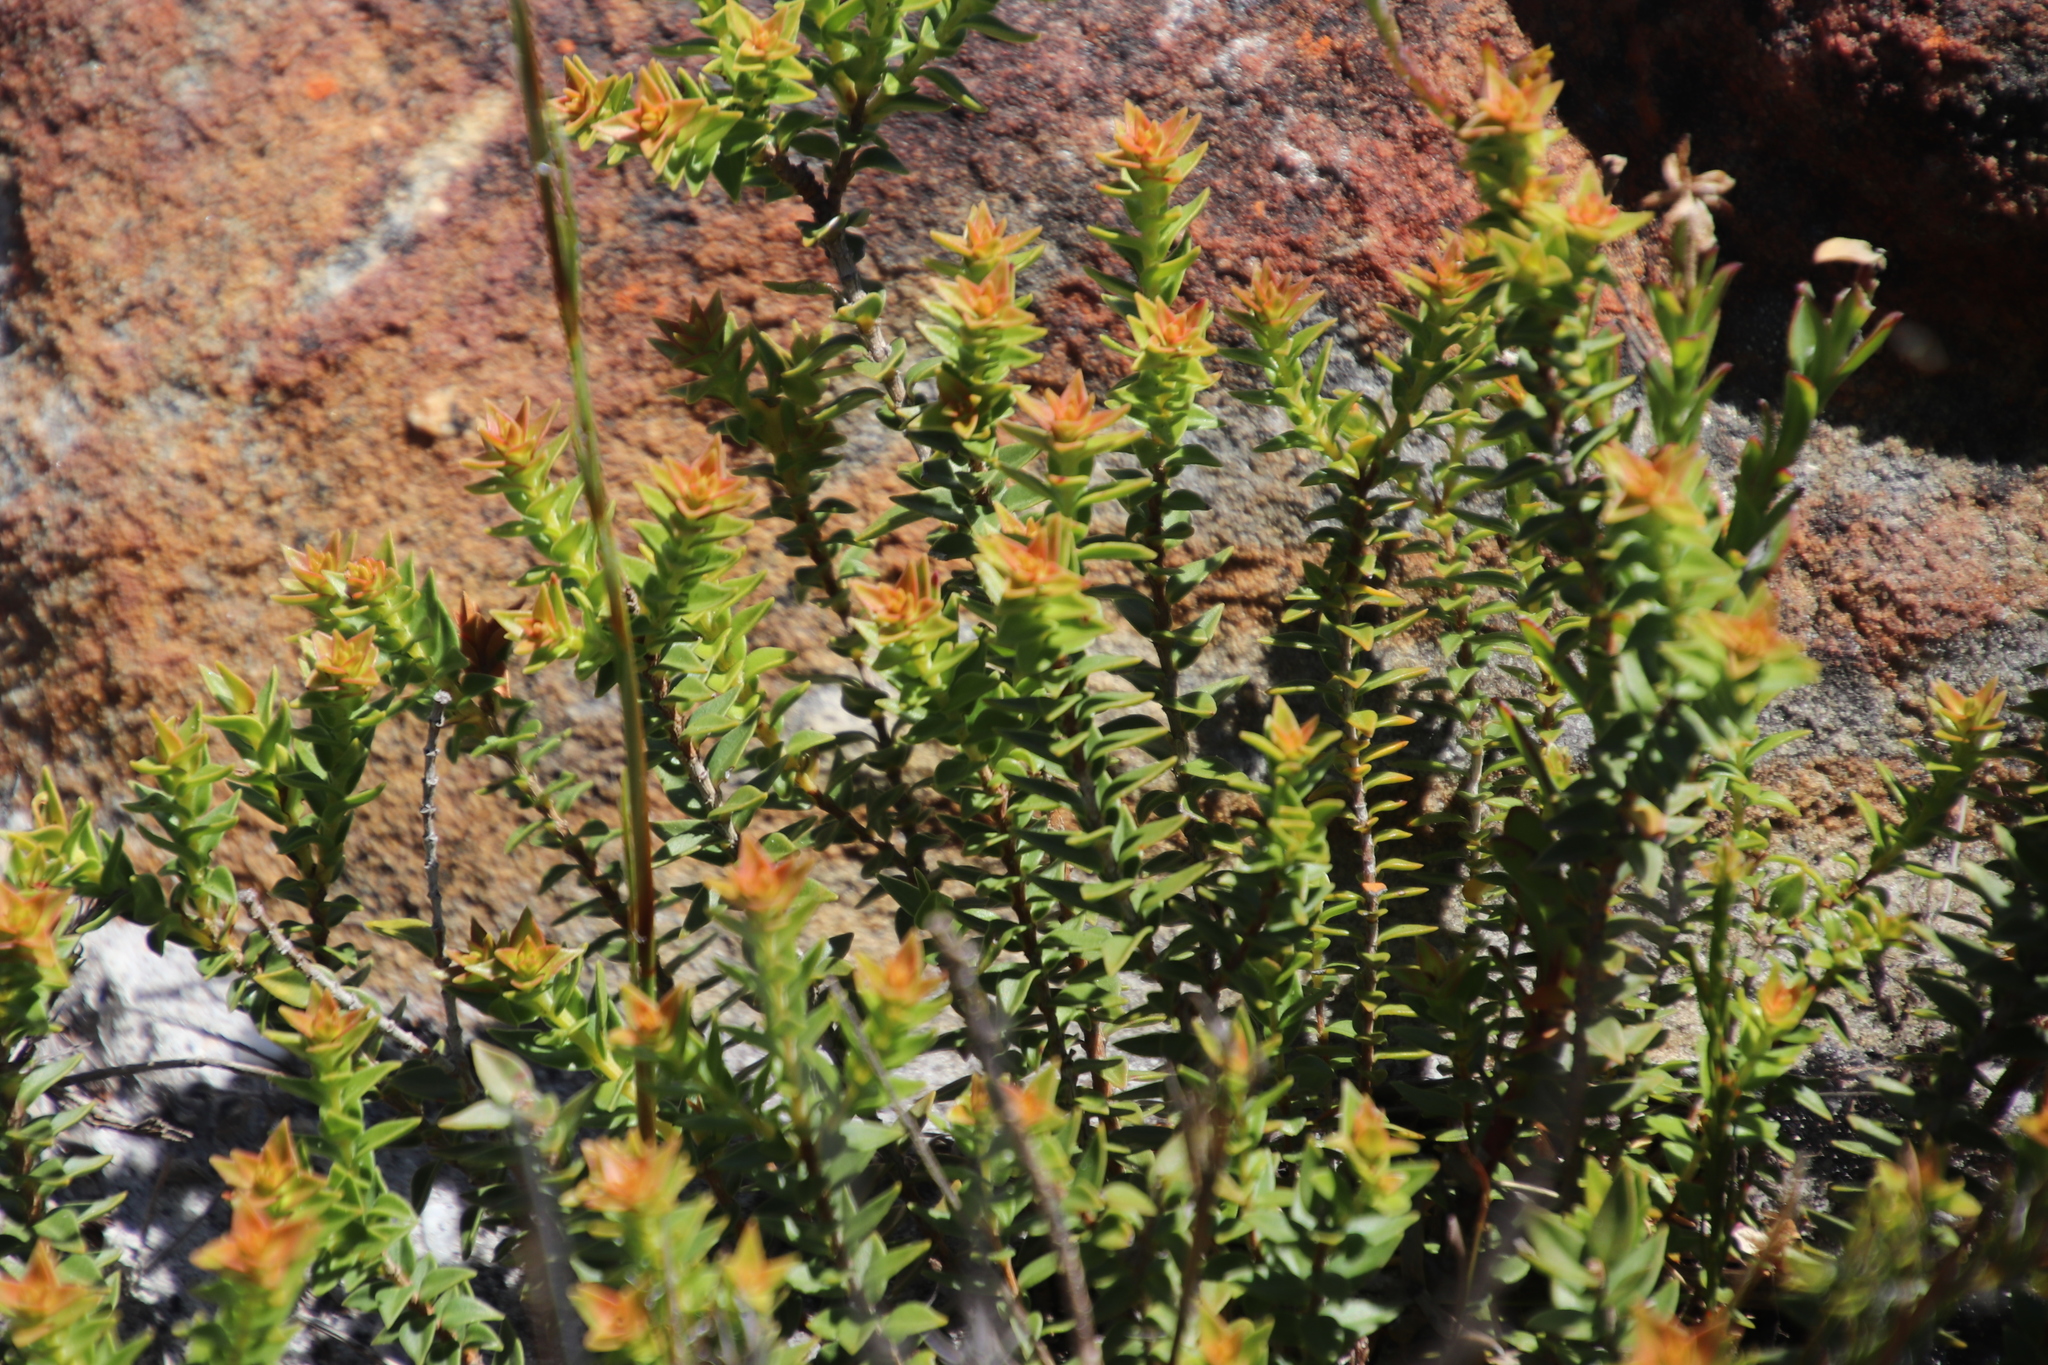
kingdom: Plantae
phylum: Tracheophyta
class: Magnoliopsida
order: Myrtales
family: Penaeaceae
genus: Penaea
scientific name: Penaea mucronata
